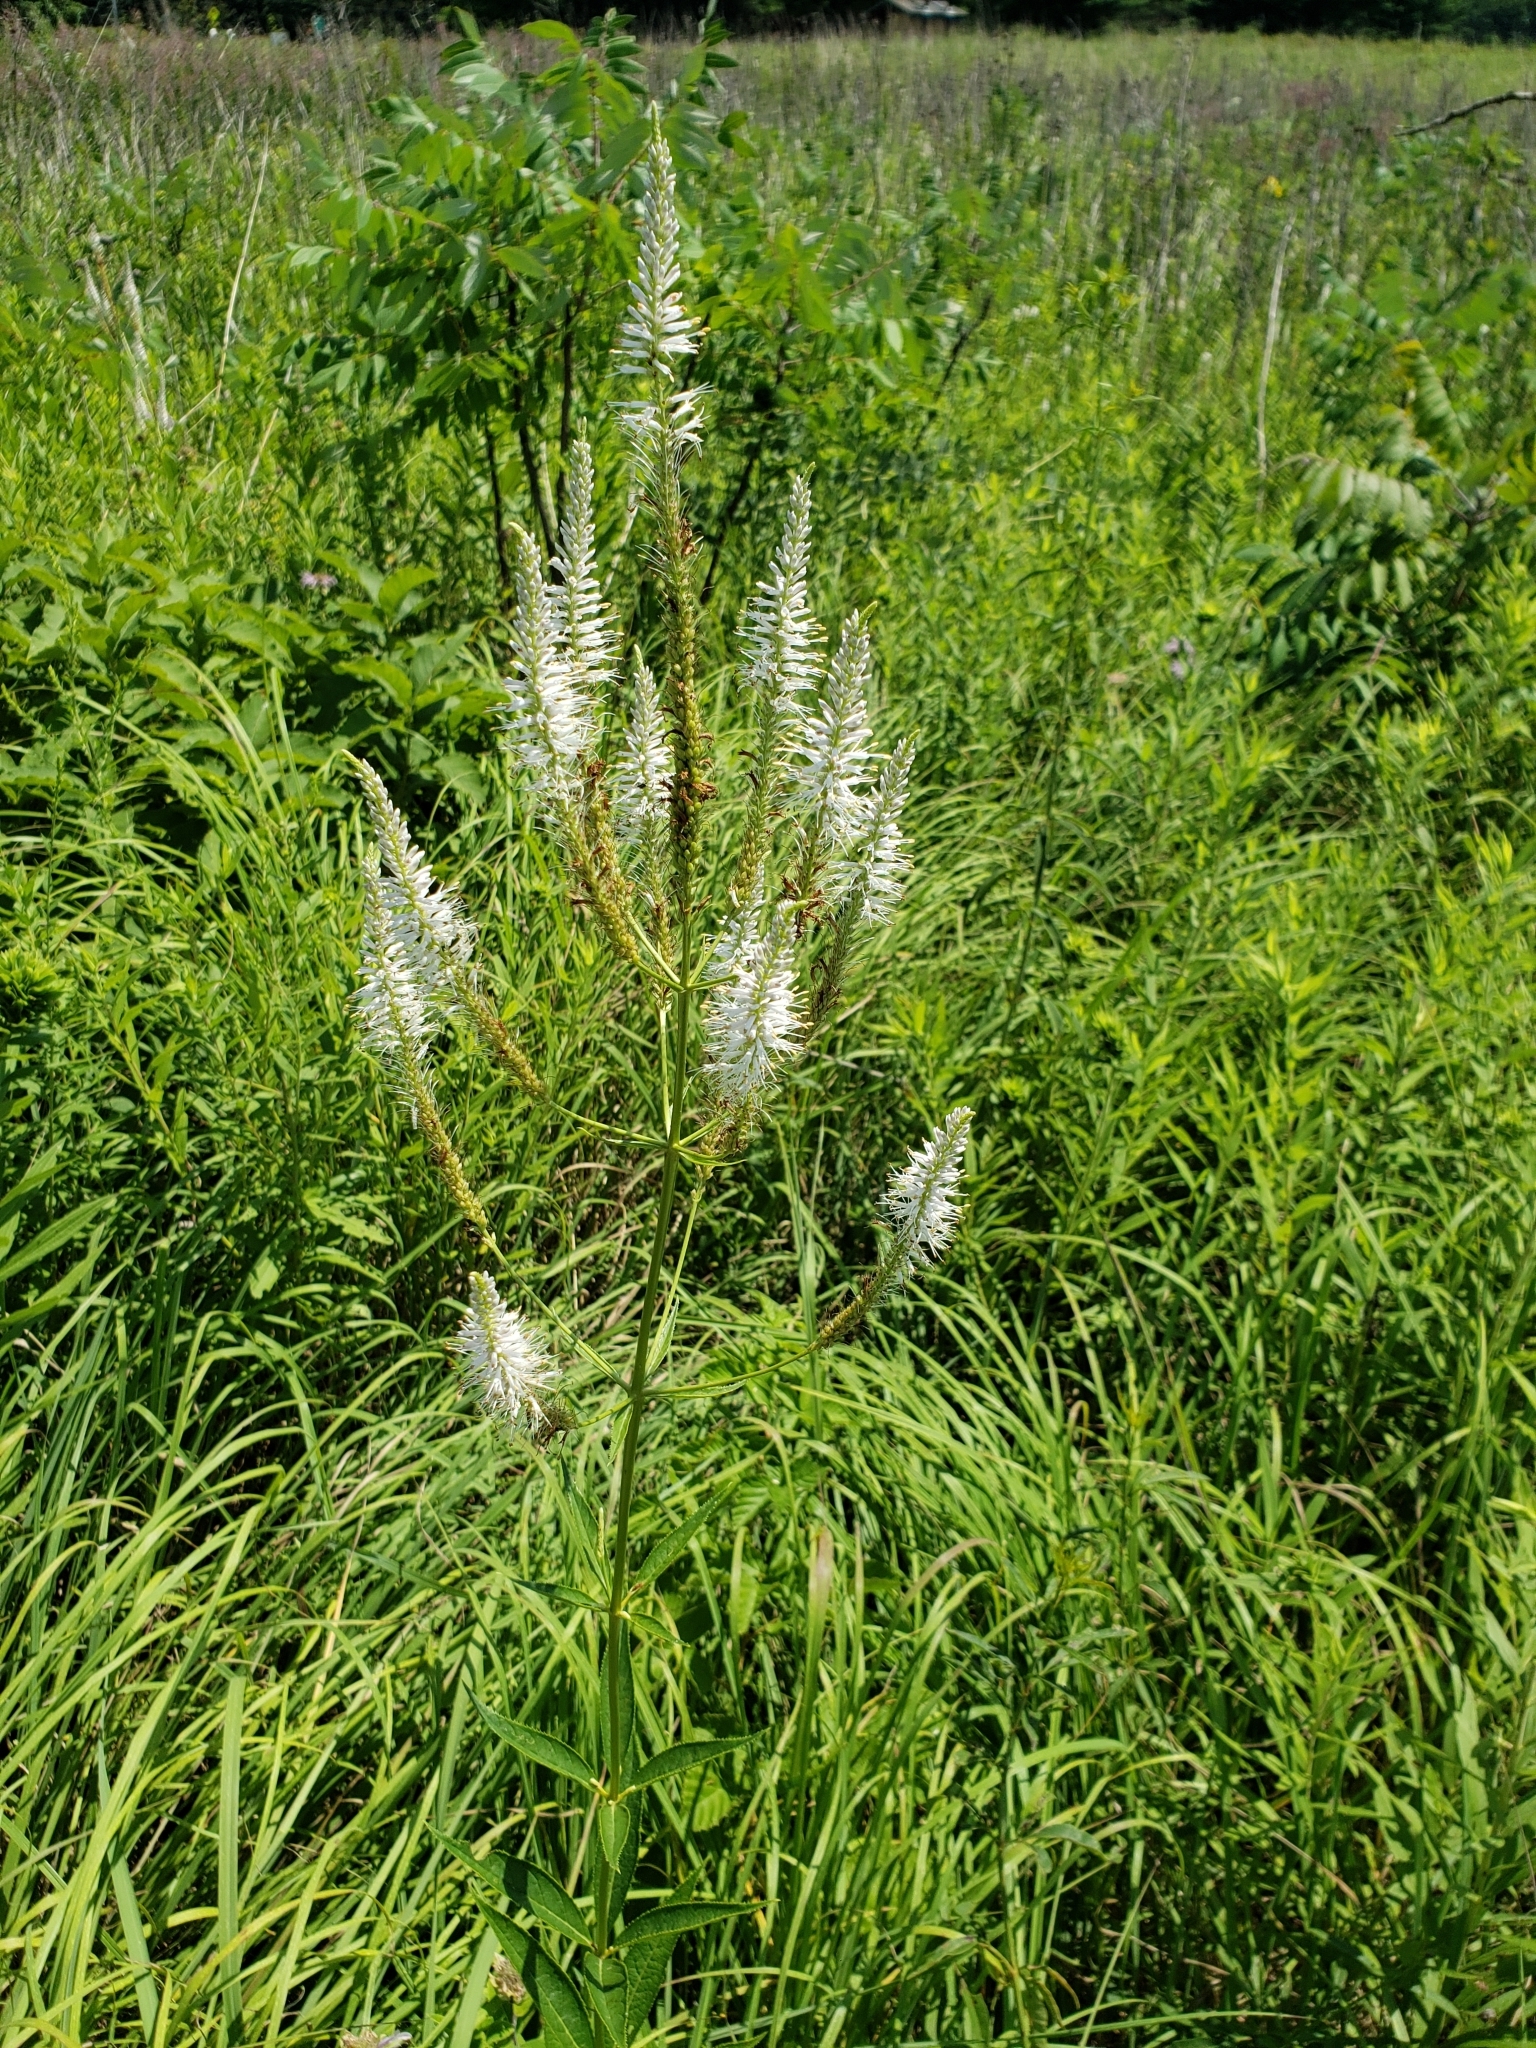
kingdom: Plantae
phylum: Tracheophyta
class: Magnoliopsida
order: Lamiales
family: Plantaginaceae
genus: Veronicastrum
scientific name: Veronicastrum virginicum
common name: Blackroot
